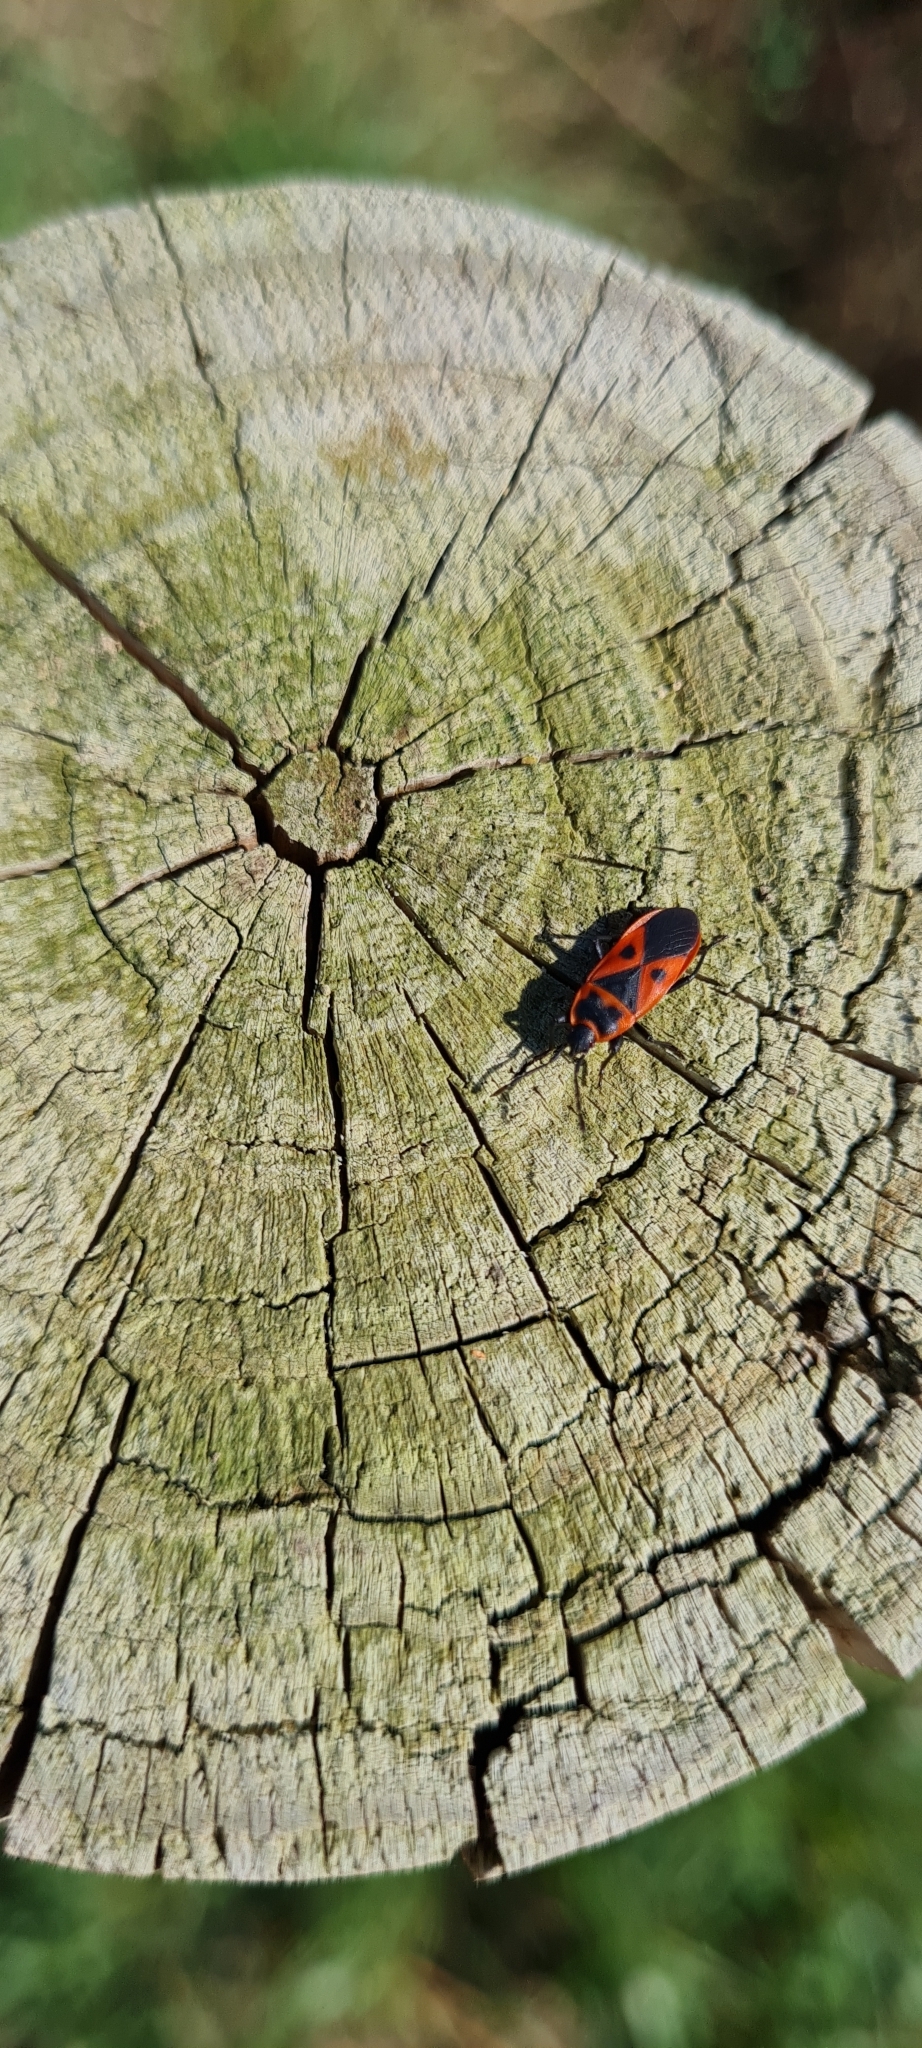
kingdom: Animalia
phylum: Arthropoda
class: Insecta
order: Hemiptera
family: Pyrrhocoridae
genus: Scantius
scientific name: Scantius aegyptius
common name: Red bug
